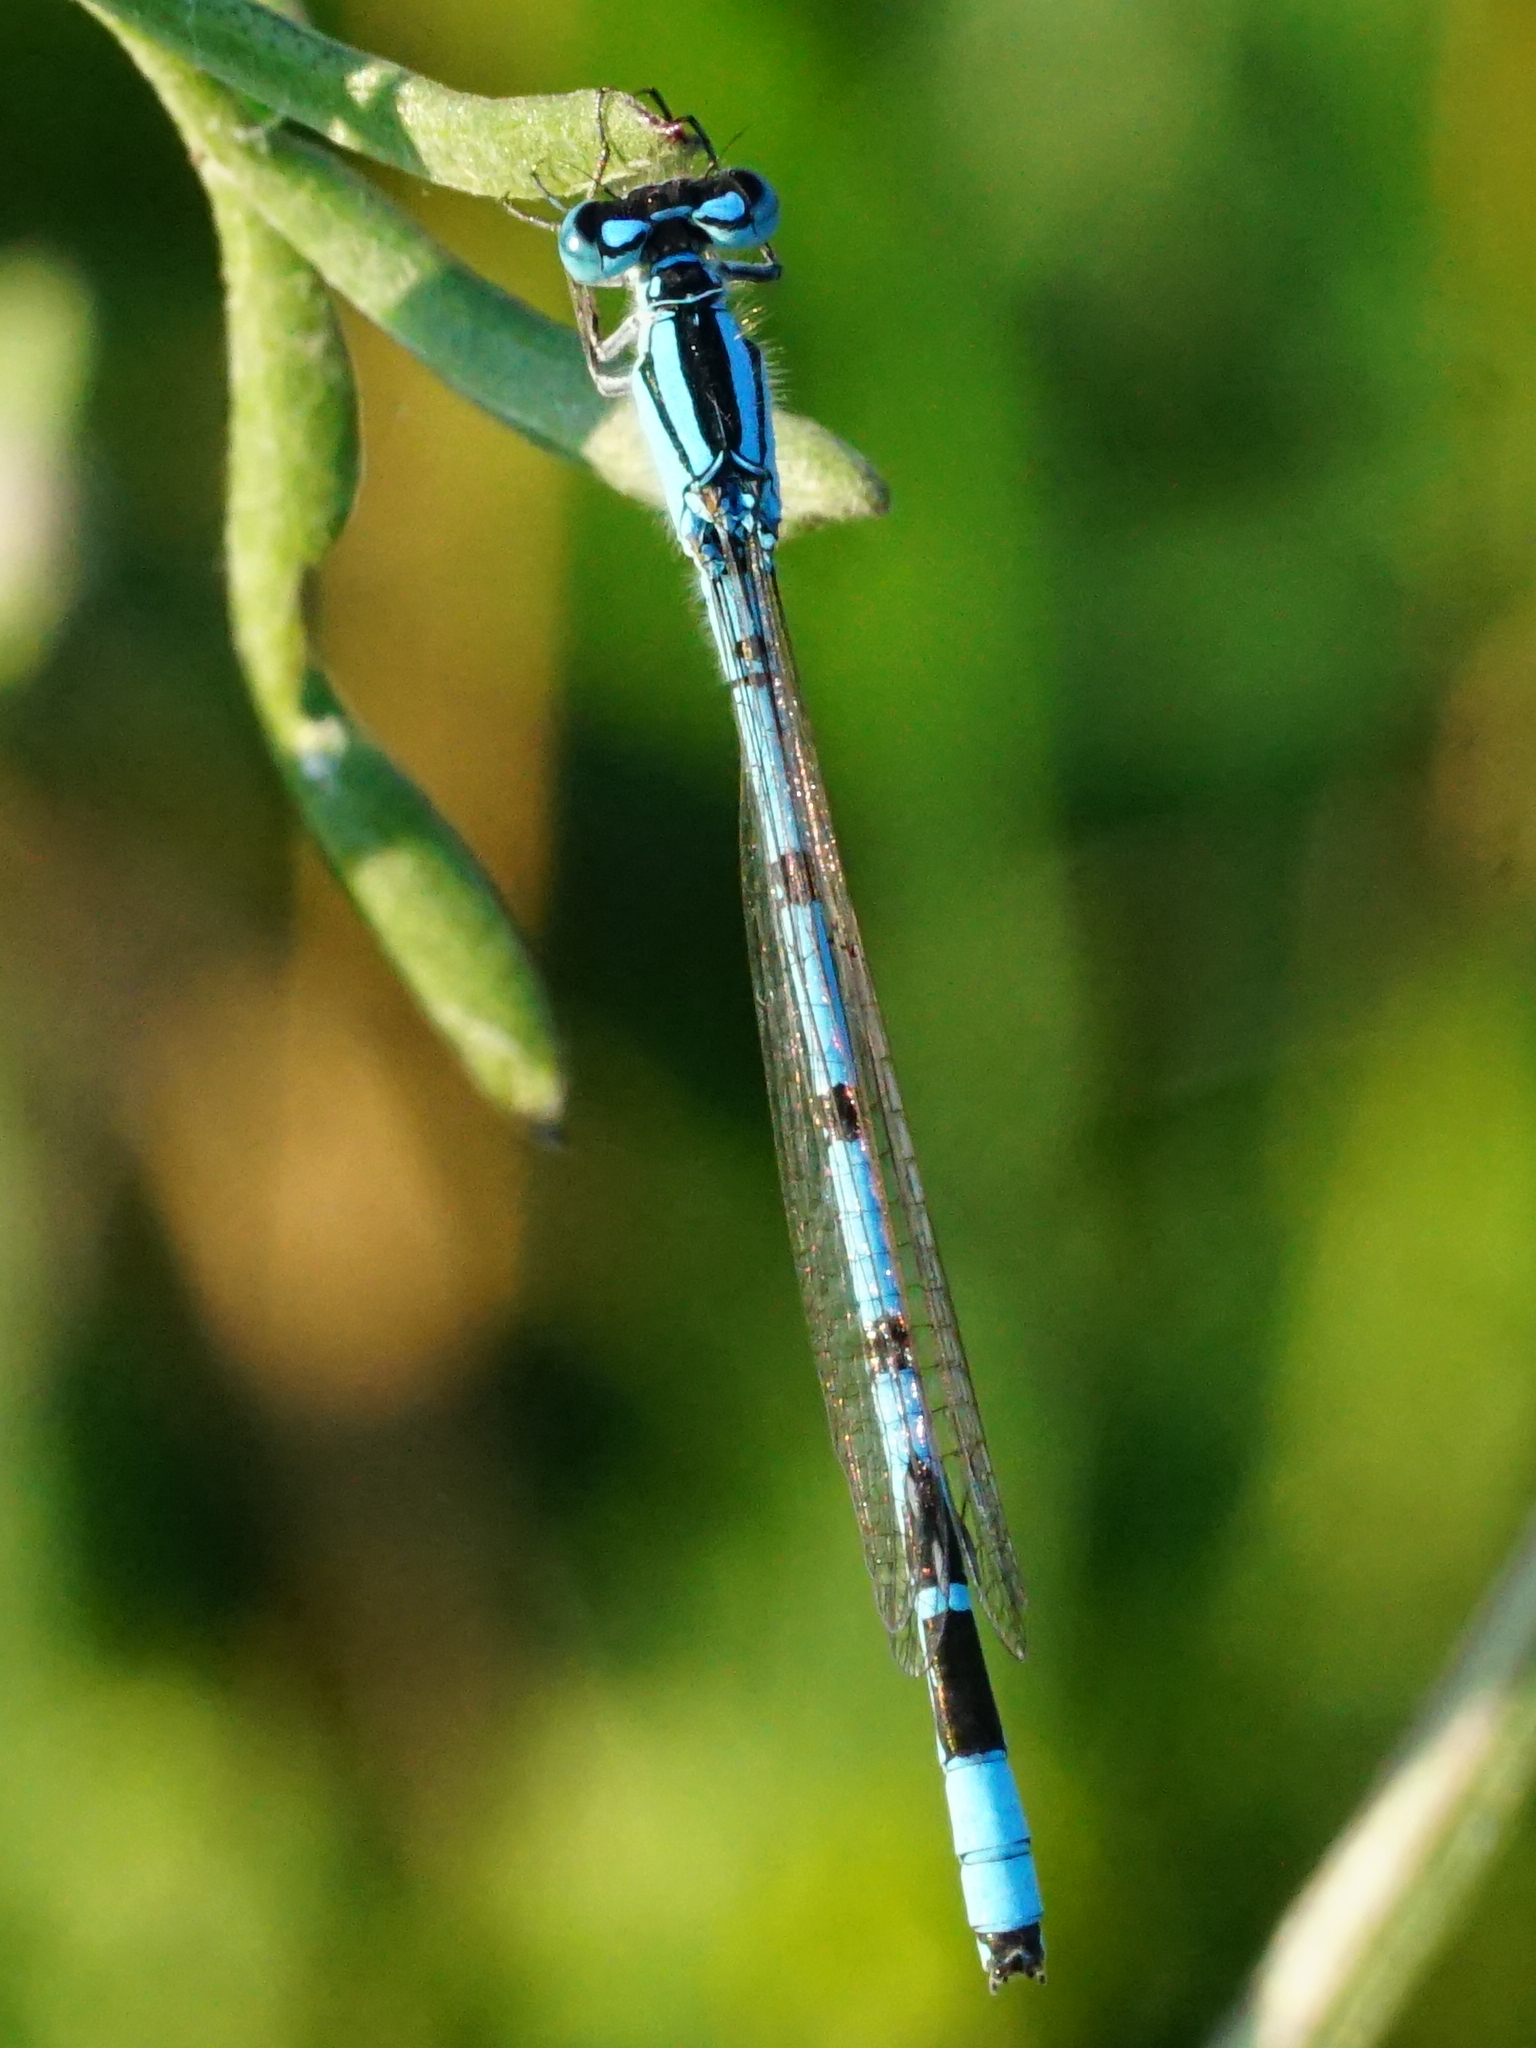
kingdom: Animalia
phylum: Arthropoda
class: Insecta
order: Odonata
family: Coenagrionidae
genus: Enallagma
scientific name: Enallagma cyathigerum
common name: Common blue damselfly
